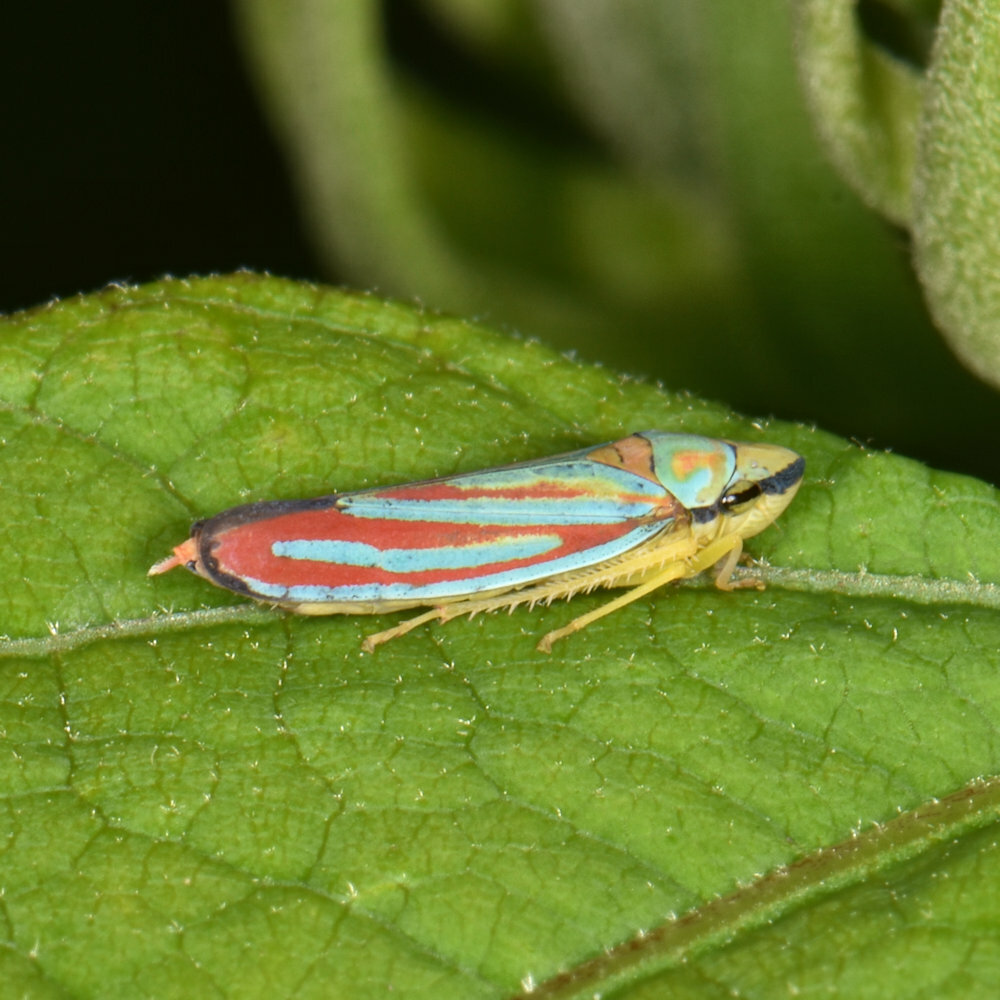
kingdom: Animalia
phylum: Arthropoda
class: Insecta
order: Hemiptera
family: Cicadellidae
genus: Graphocephala
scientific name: Graphocephala coccinea
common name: Candy-striped leafhopper
